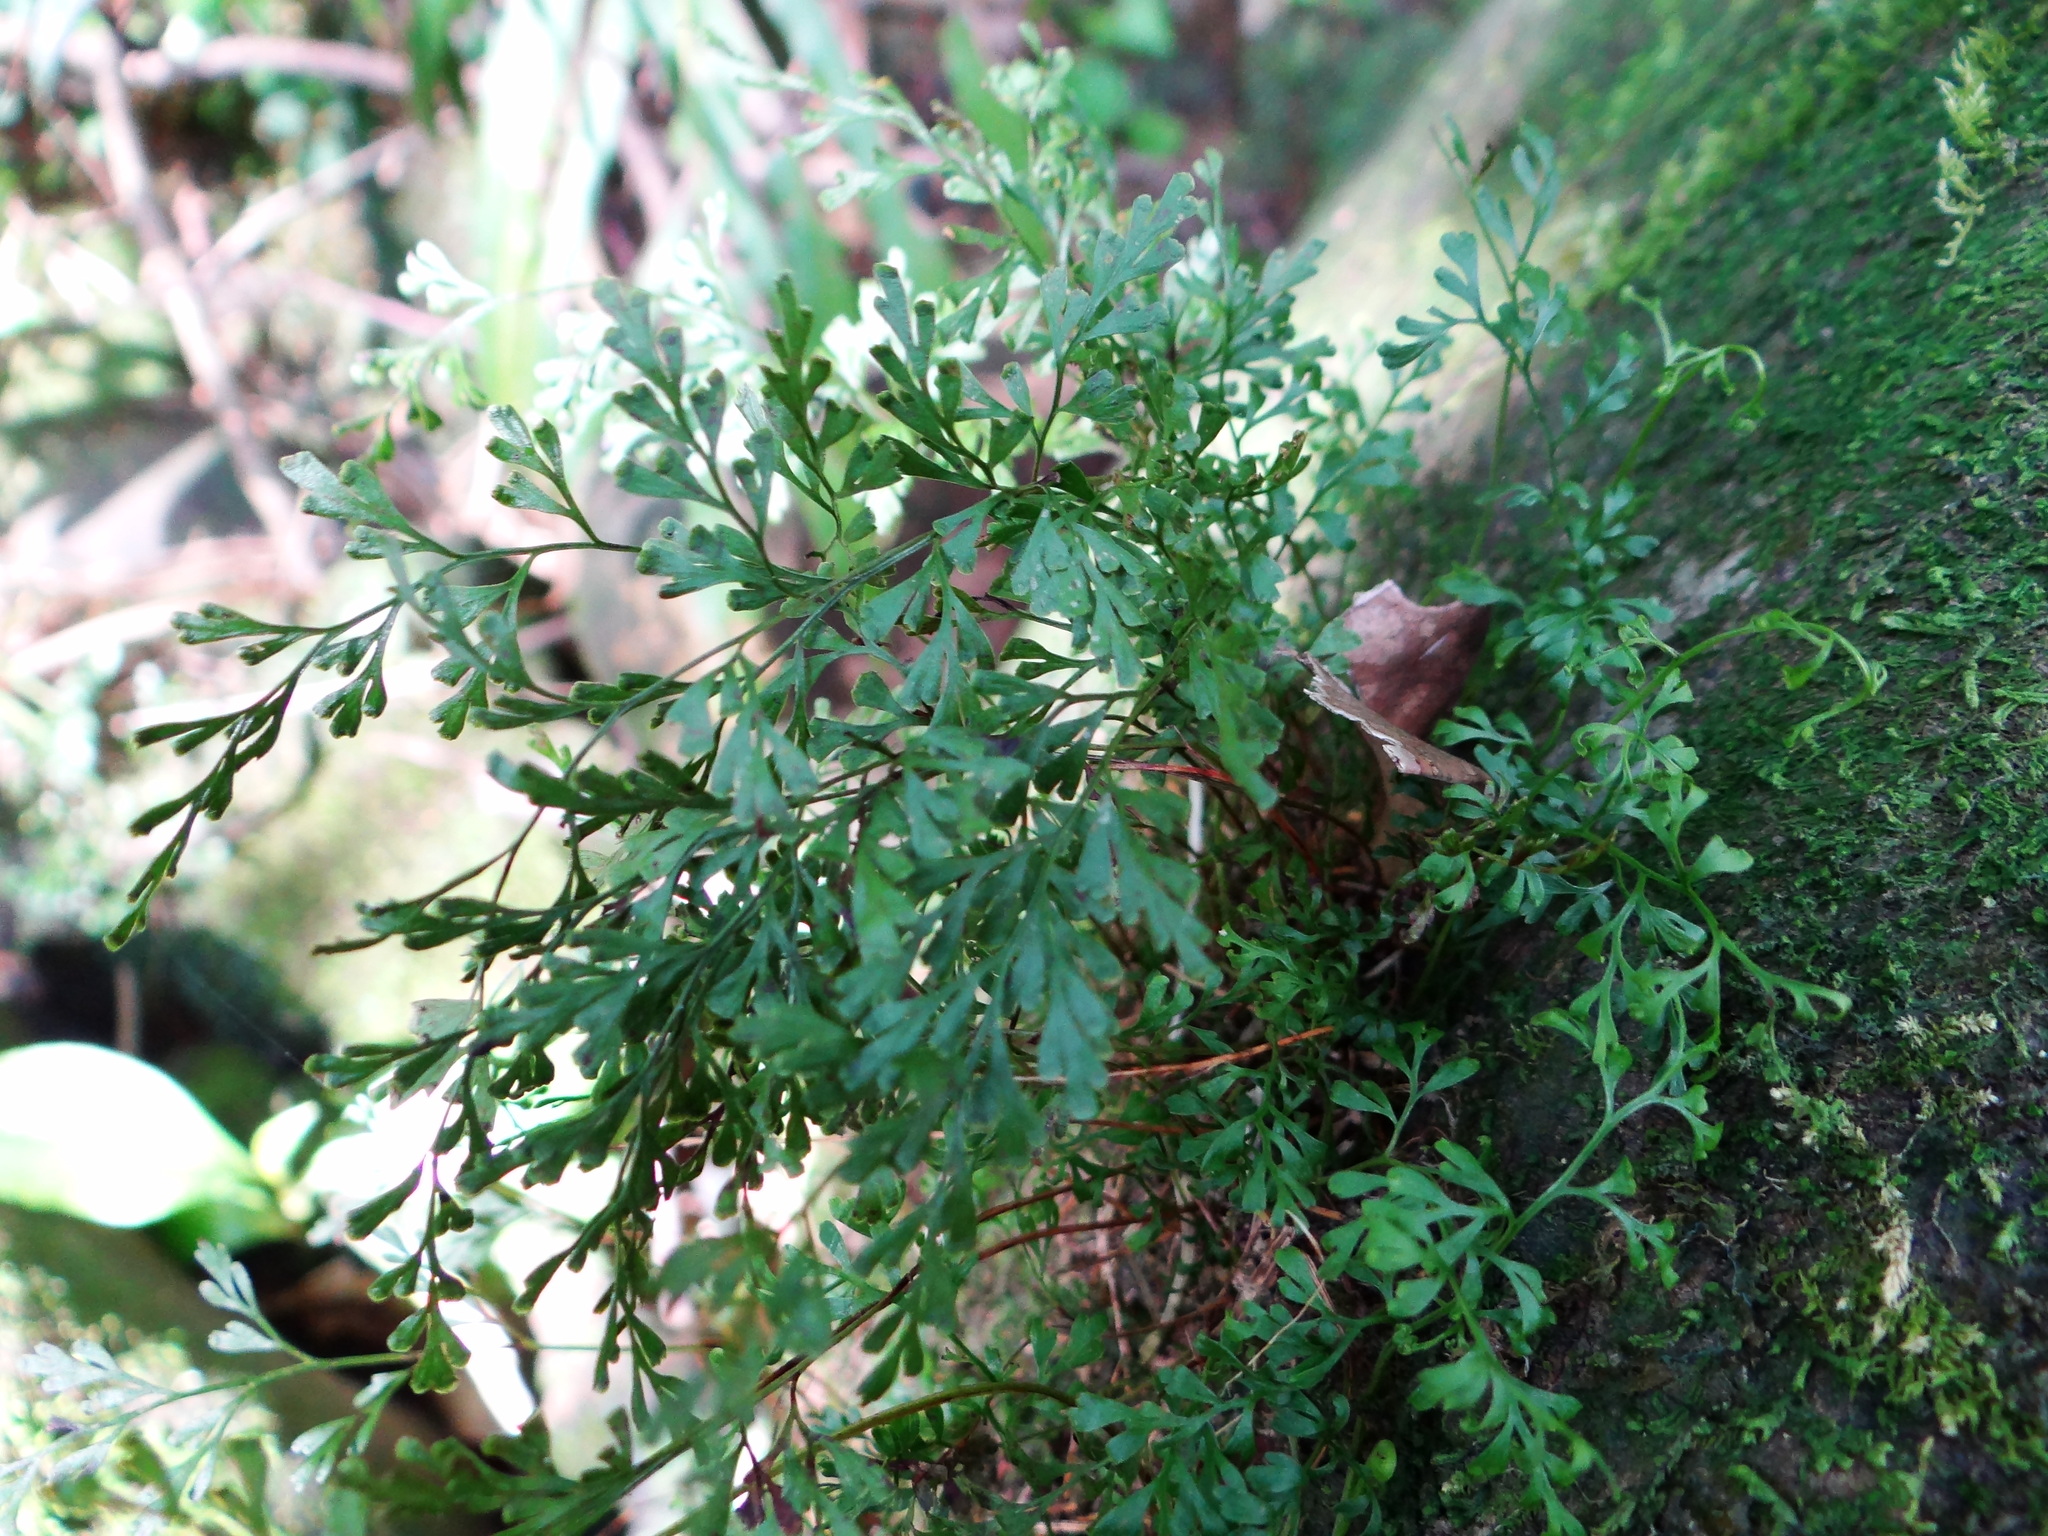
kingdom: Plantae
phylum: Tracheophyta
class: Polypodiopsida
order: Polypodiales
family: Lindsaeaceae
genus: Odontosoria
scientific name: Odontosoria gracilis
